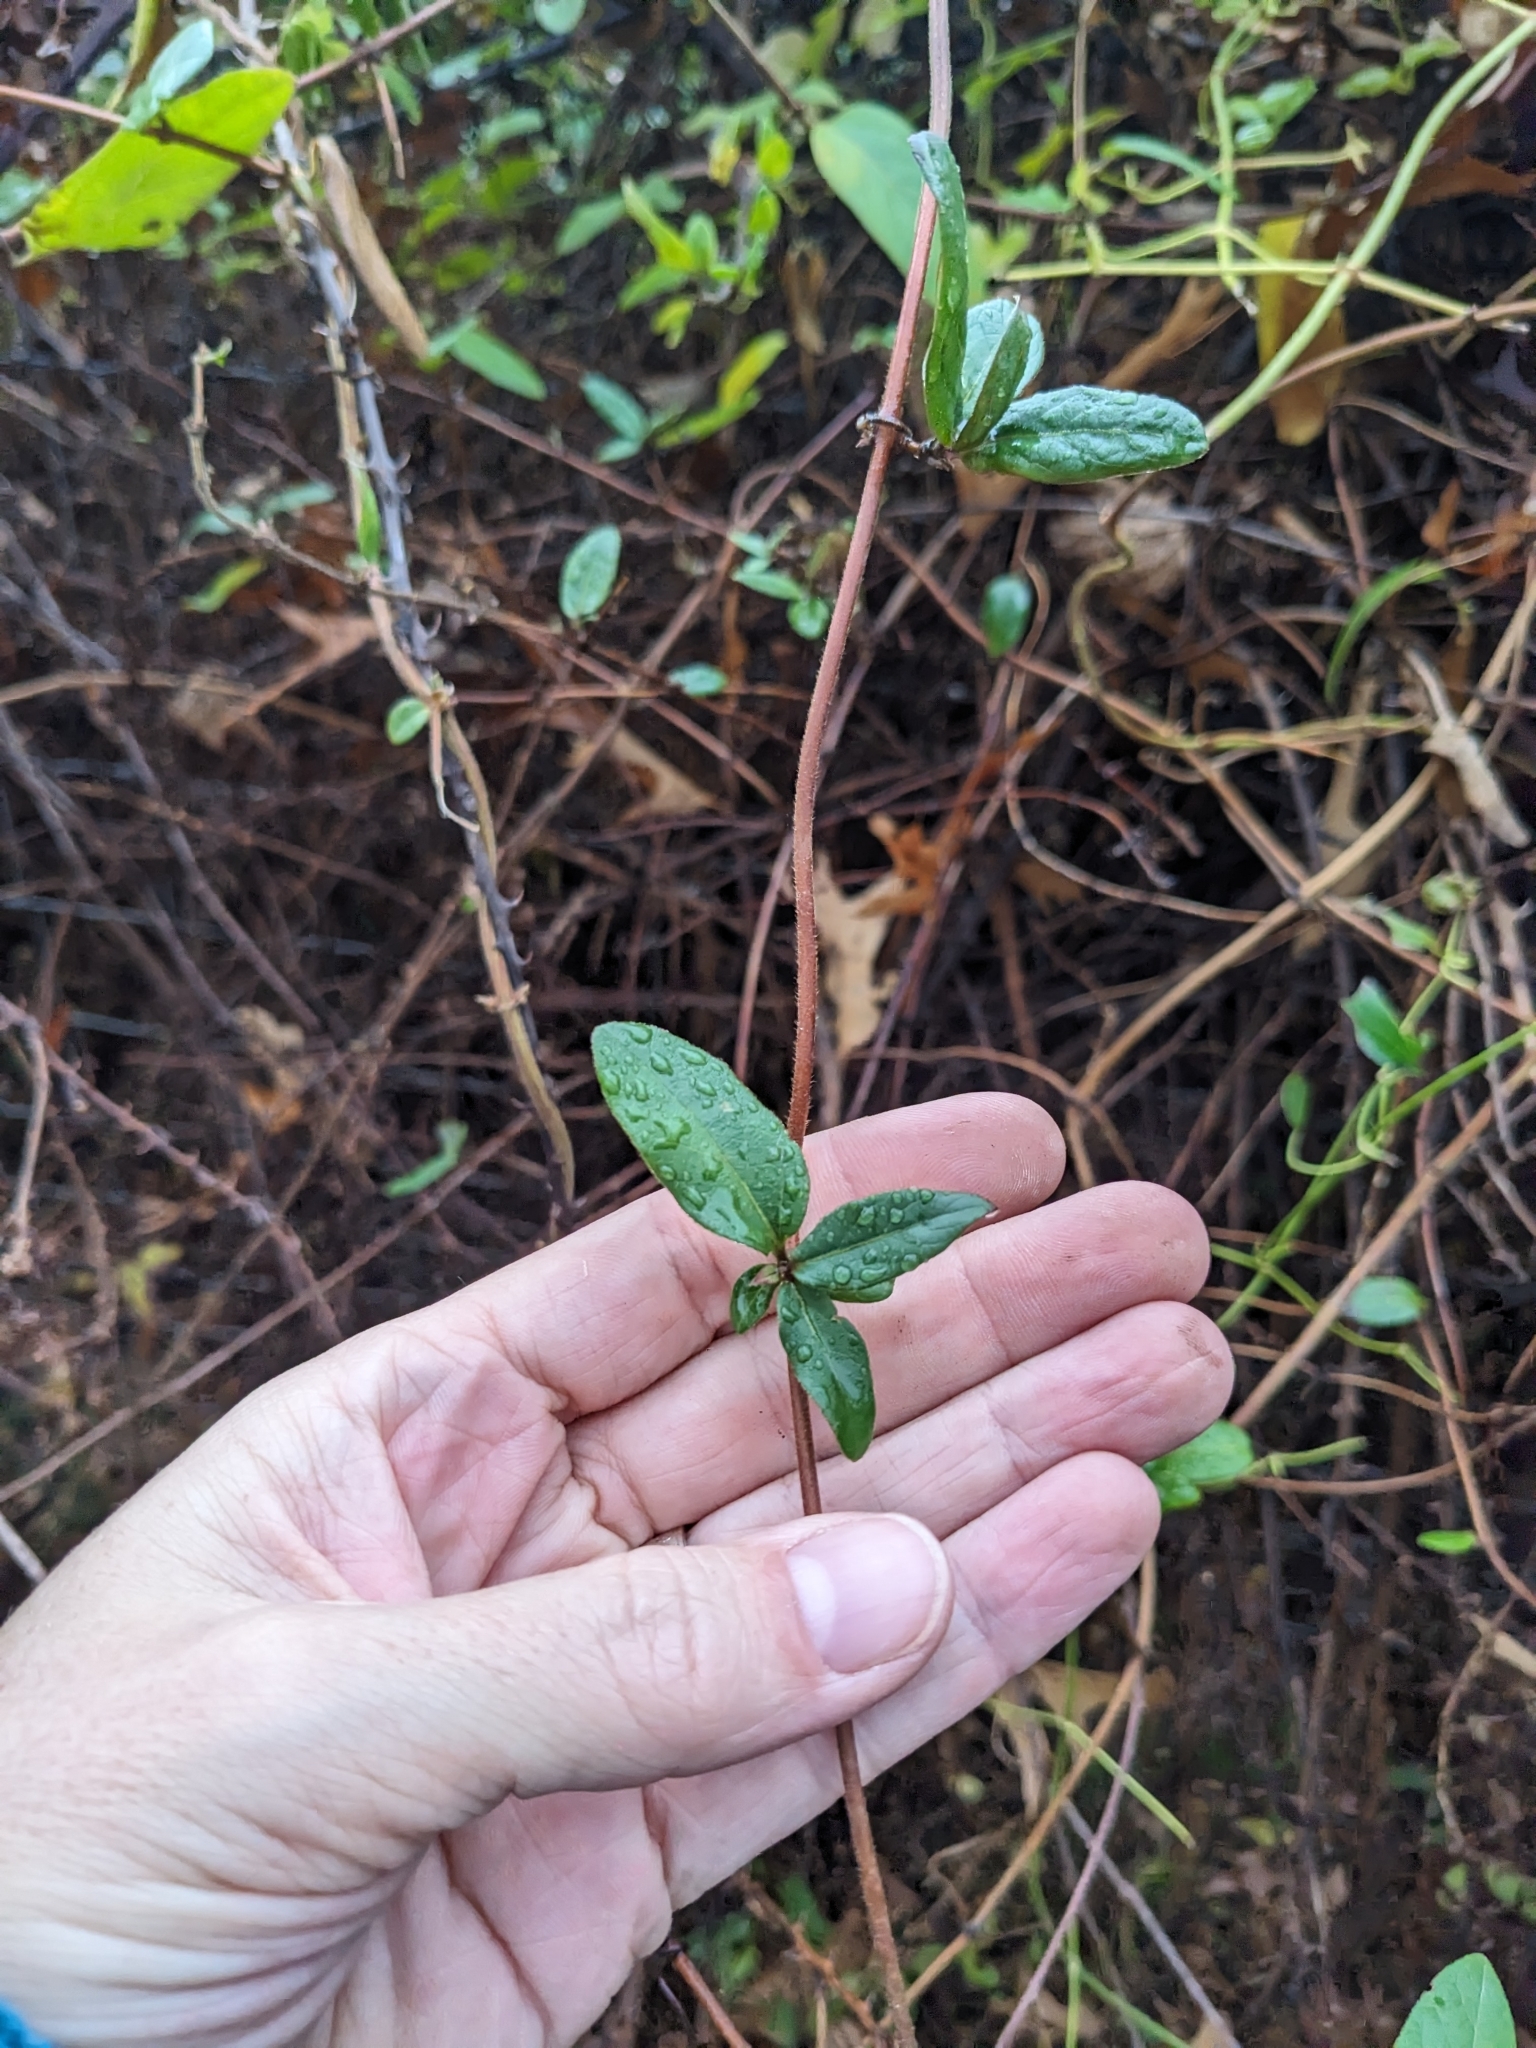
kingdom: Plantae
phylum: Tracheophyta
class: Magnoliopsida
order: Dipsacales
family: Caprifoliaceae
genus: Lonicera
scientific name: Lonicera japonica
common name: Japanese honeysuckle
